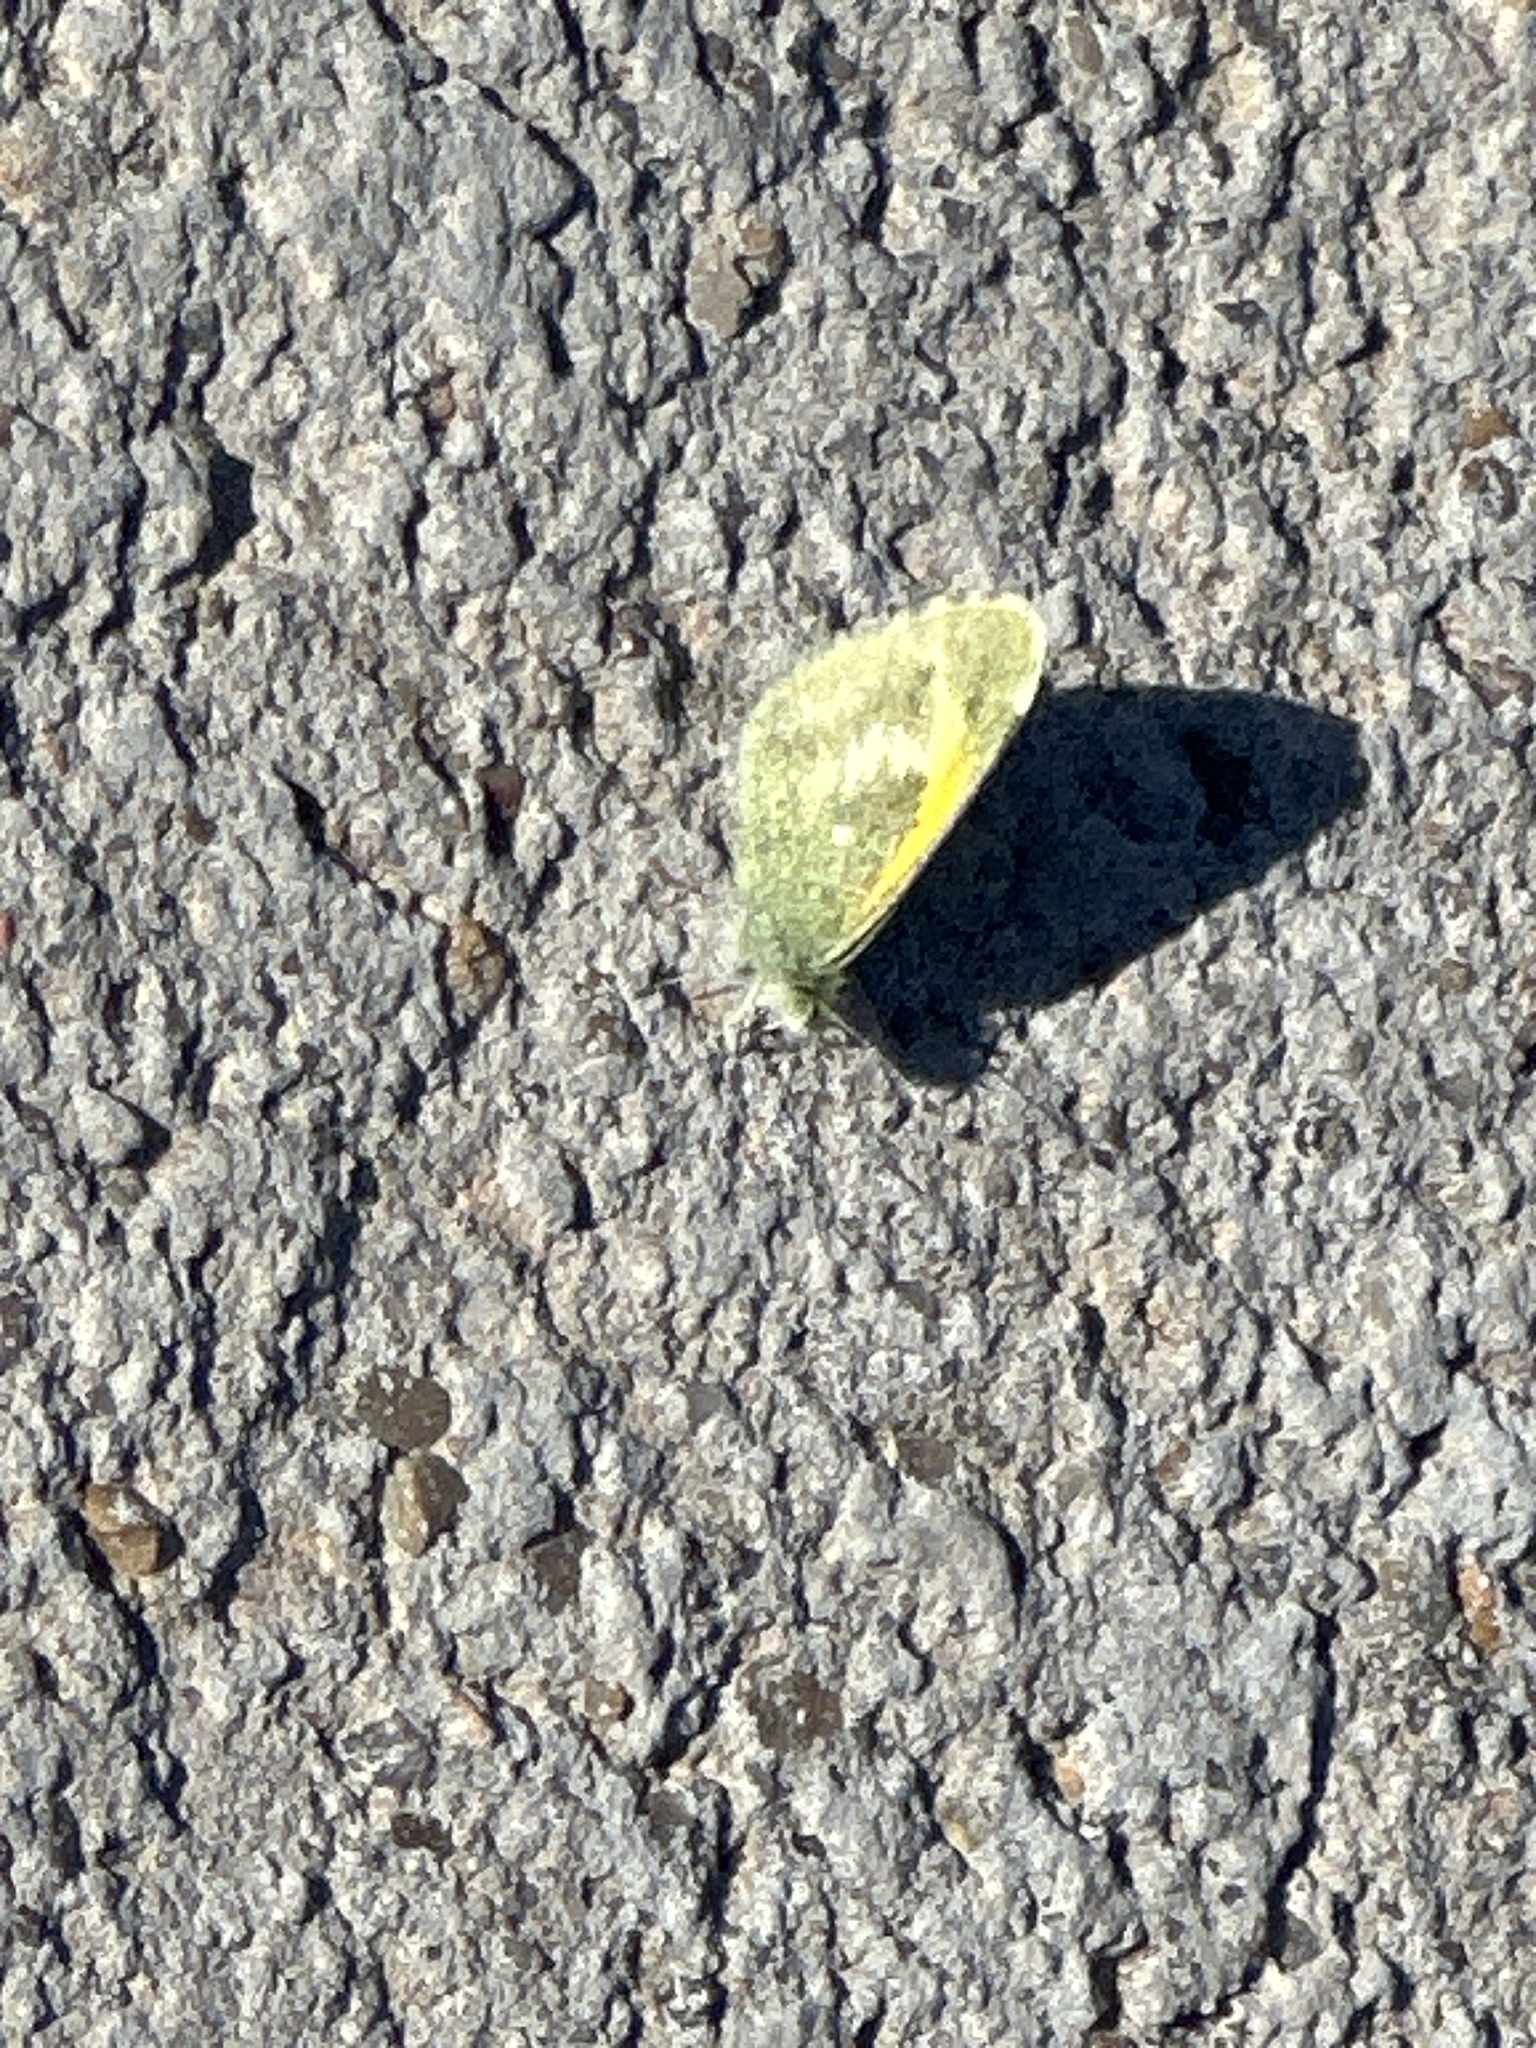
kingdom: Animalia
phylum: Arthropoda
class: Insecta
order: Lepidoptera
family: Pieridae
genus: Nathalis
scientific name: Nathalis iole
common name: Dainty sulphur
